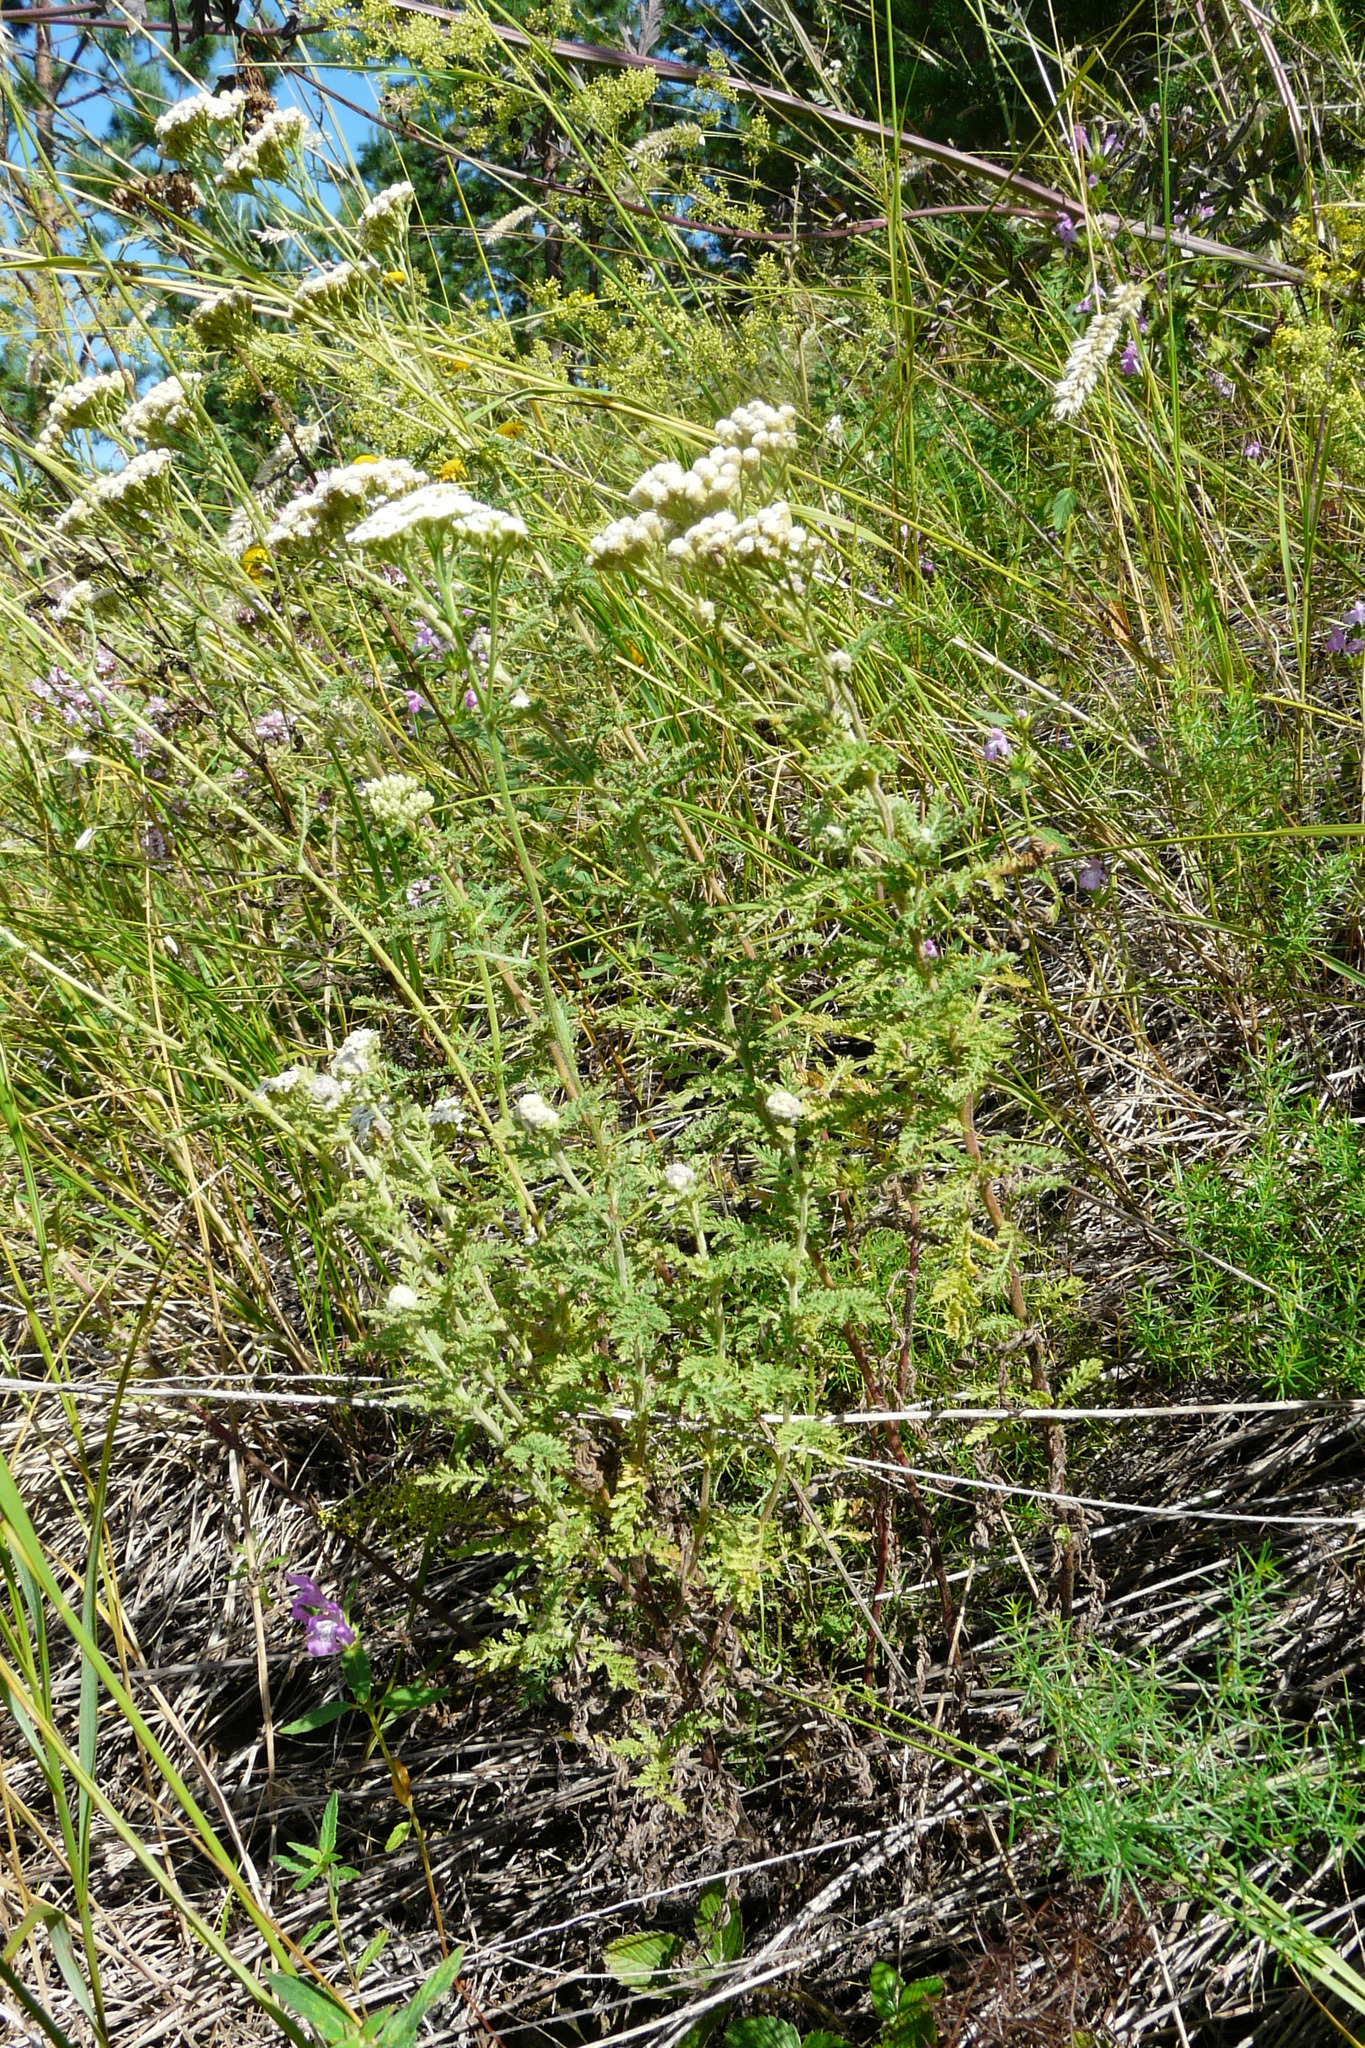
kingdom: Plantae
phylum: Tracheophyta
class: Magnoliopsida
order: Asterales
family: Asteraceae
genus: Achillea
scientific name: Achillea nobilis
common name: Noble yarrow
